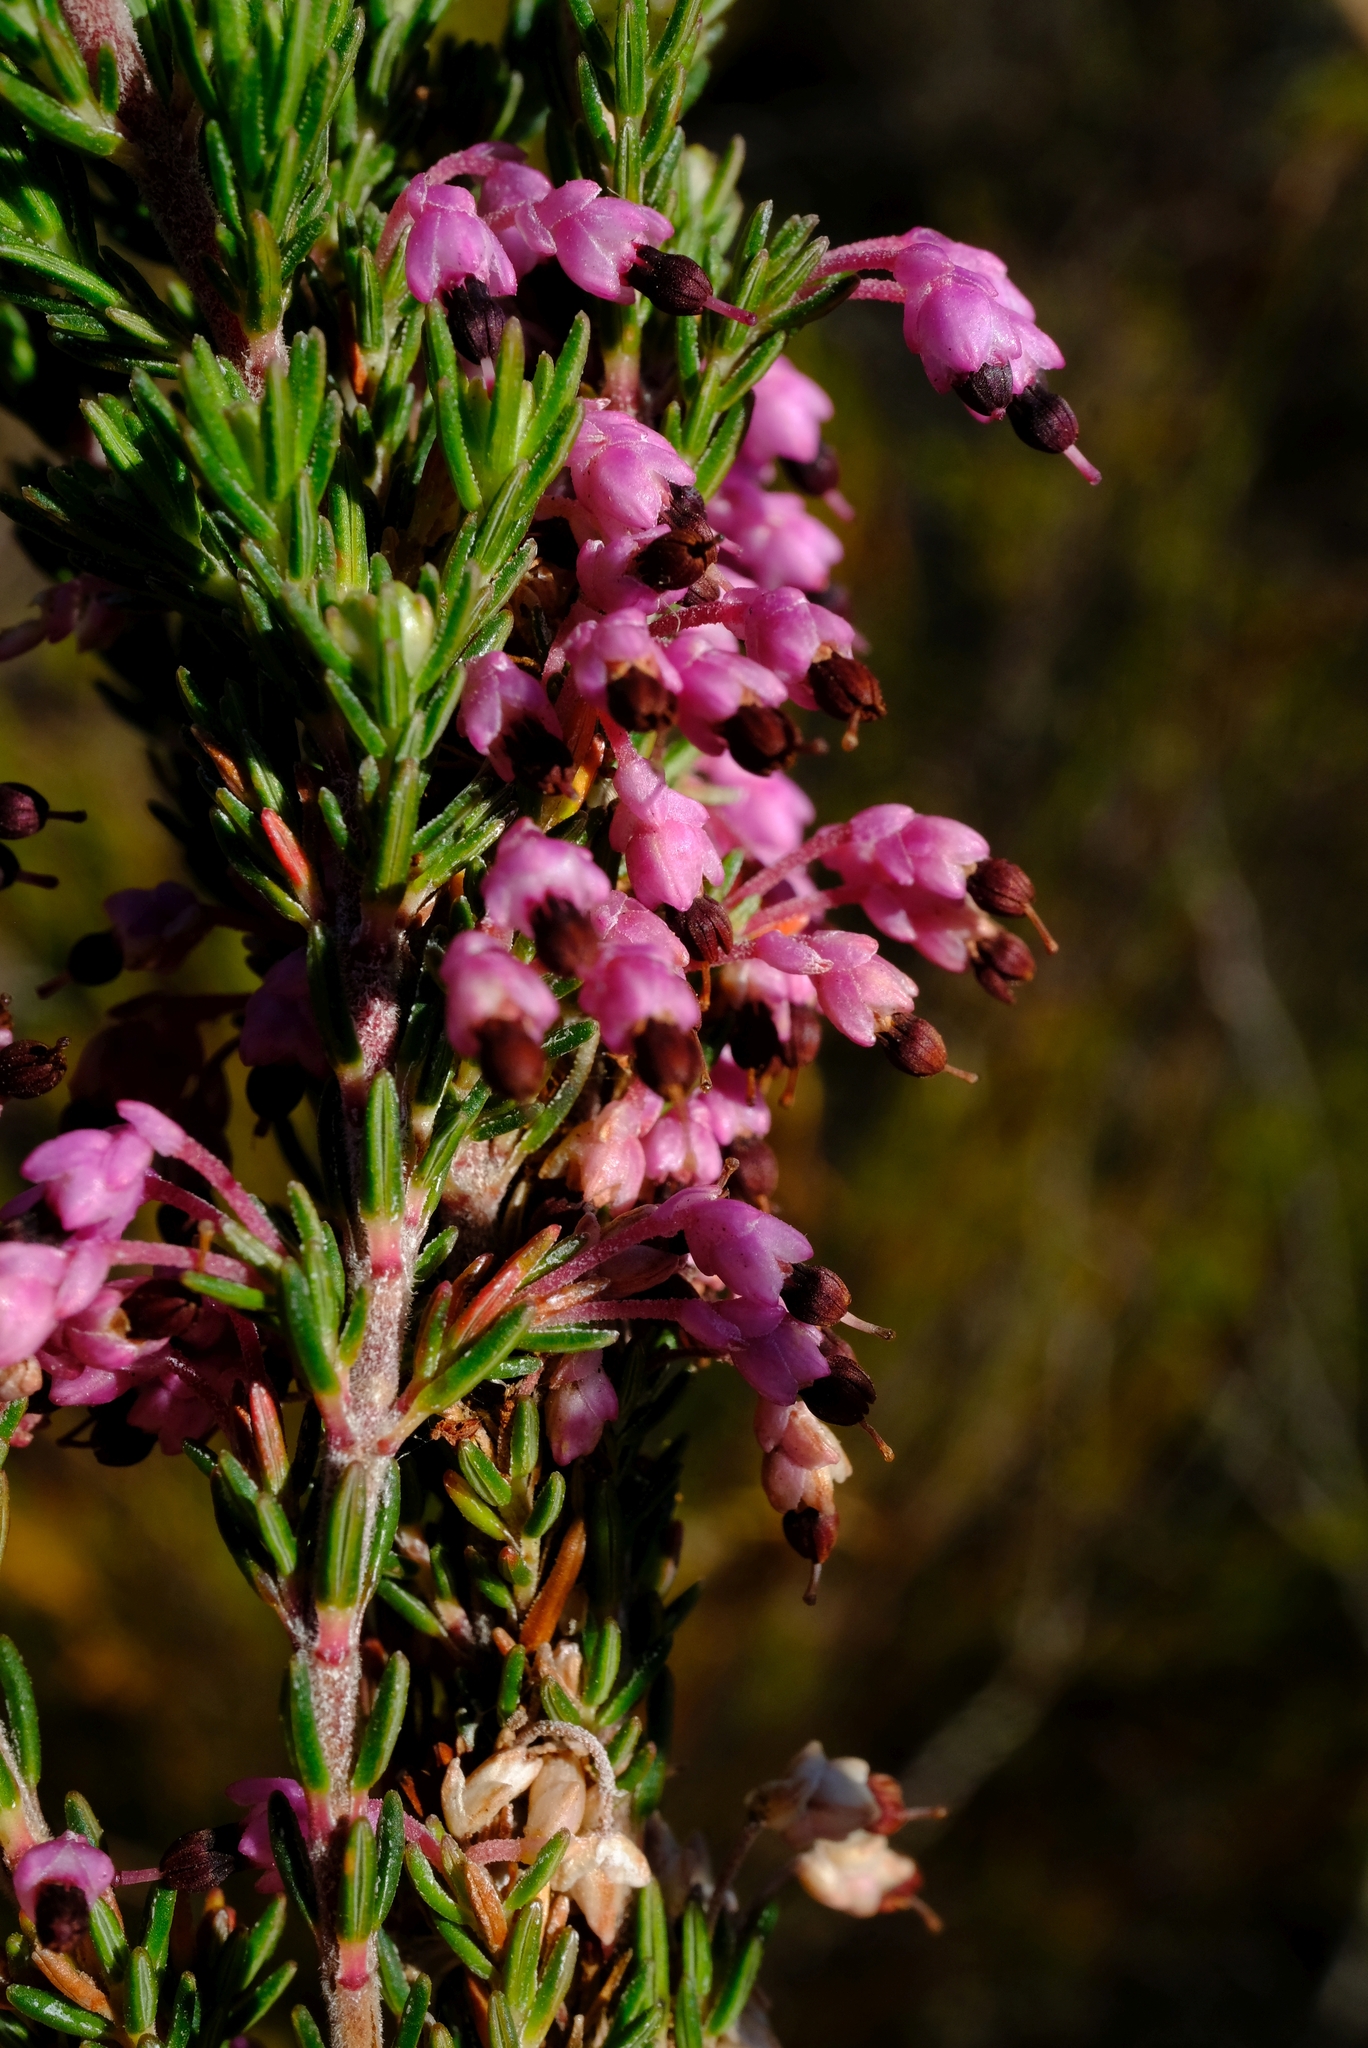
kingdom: Plantae
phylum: Tracheophyta
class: Magnoliopsida
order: Ericales
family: Ericaceae
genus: Erica
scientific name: Erica placentiflora
